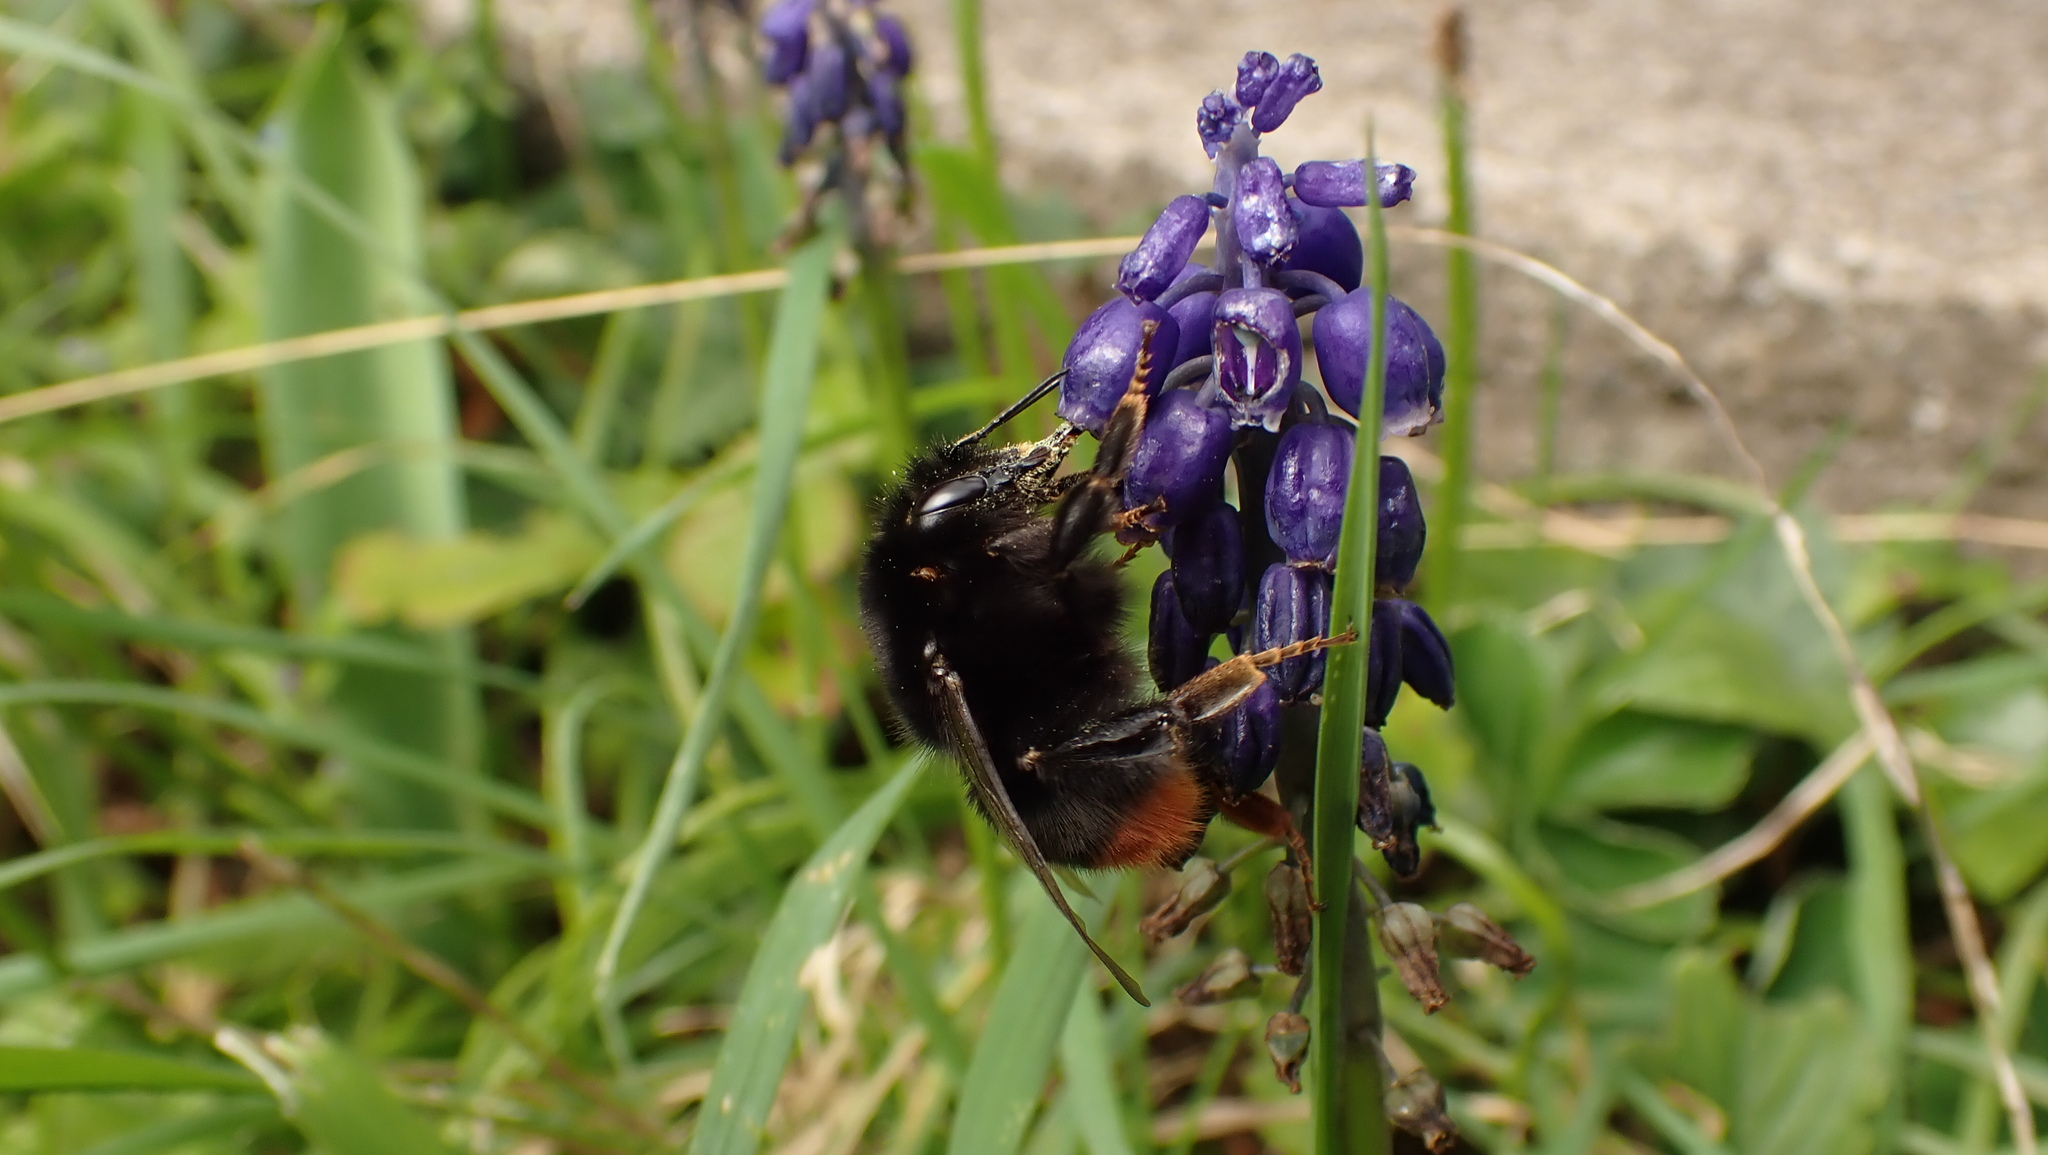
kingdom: Animalia
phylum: Arthropoda
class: Insecta
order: Hymenoptera
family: Apidae
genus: Bombus
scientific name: Bombus lapidarius
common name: Large red-tailed humble-bee
